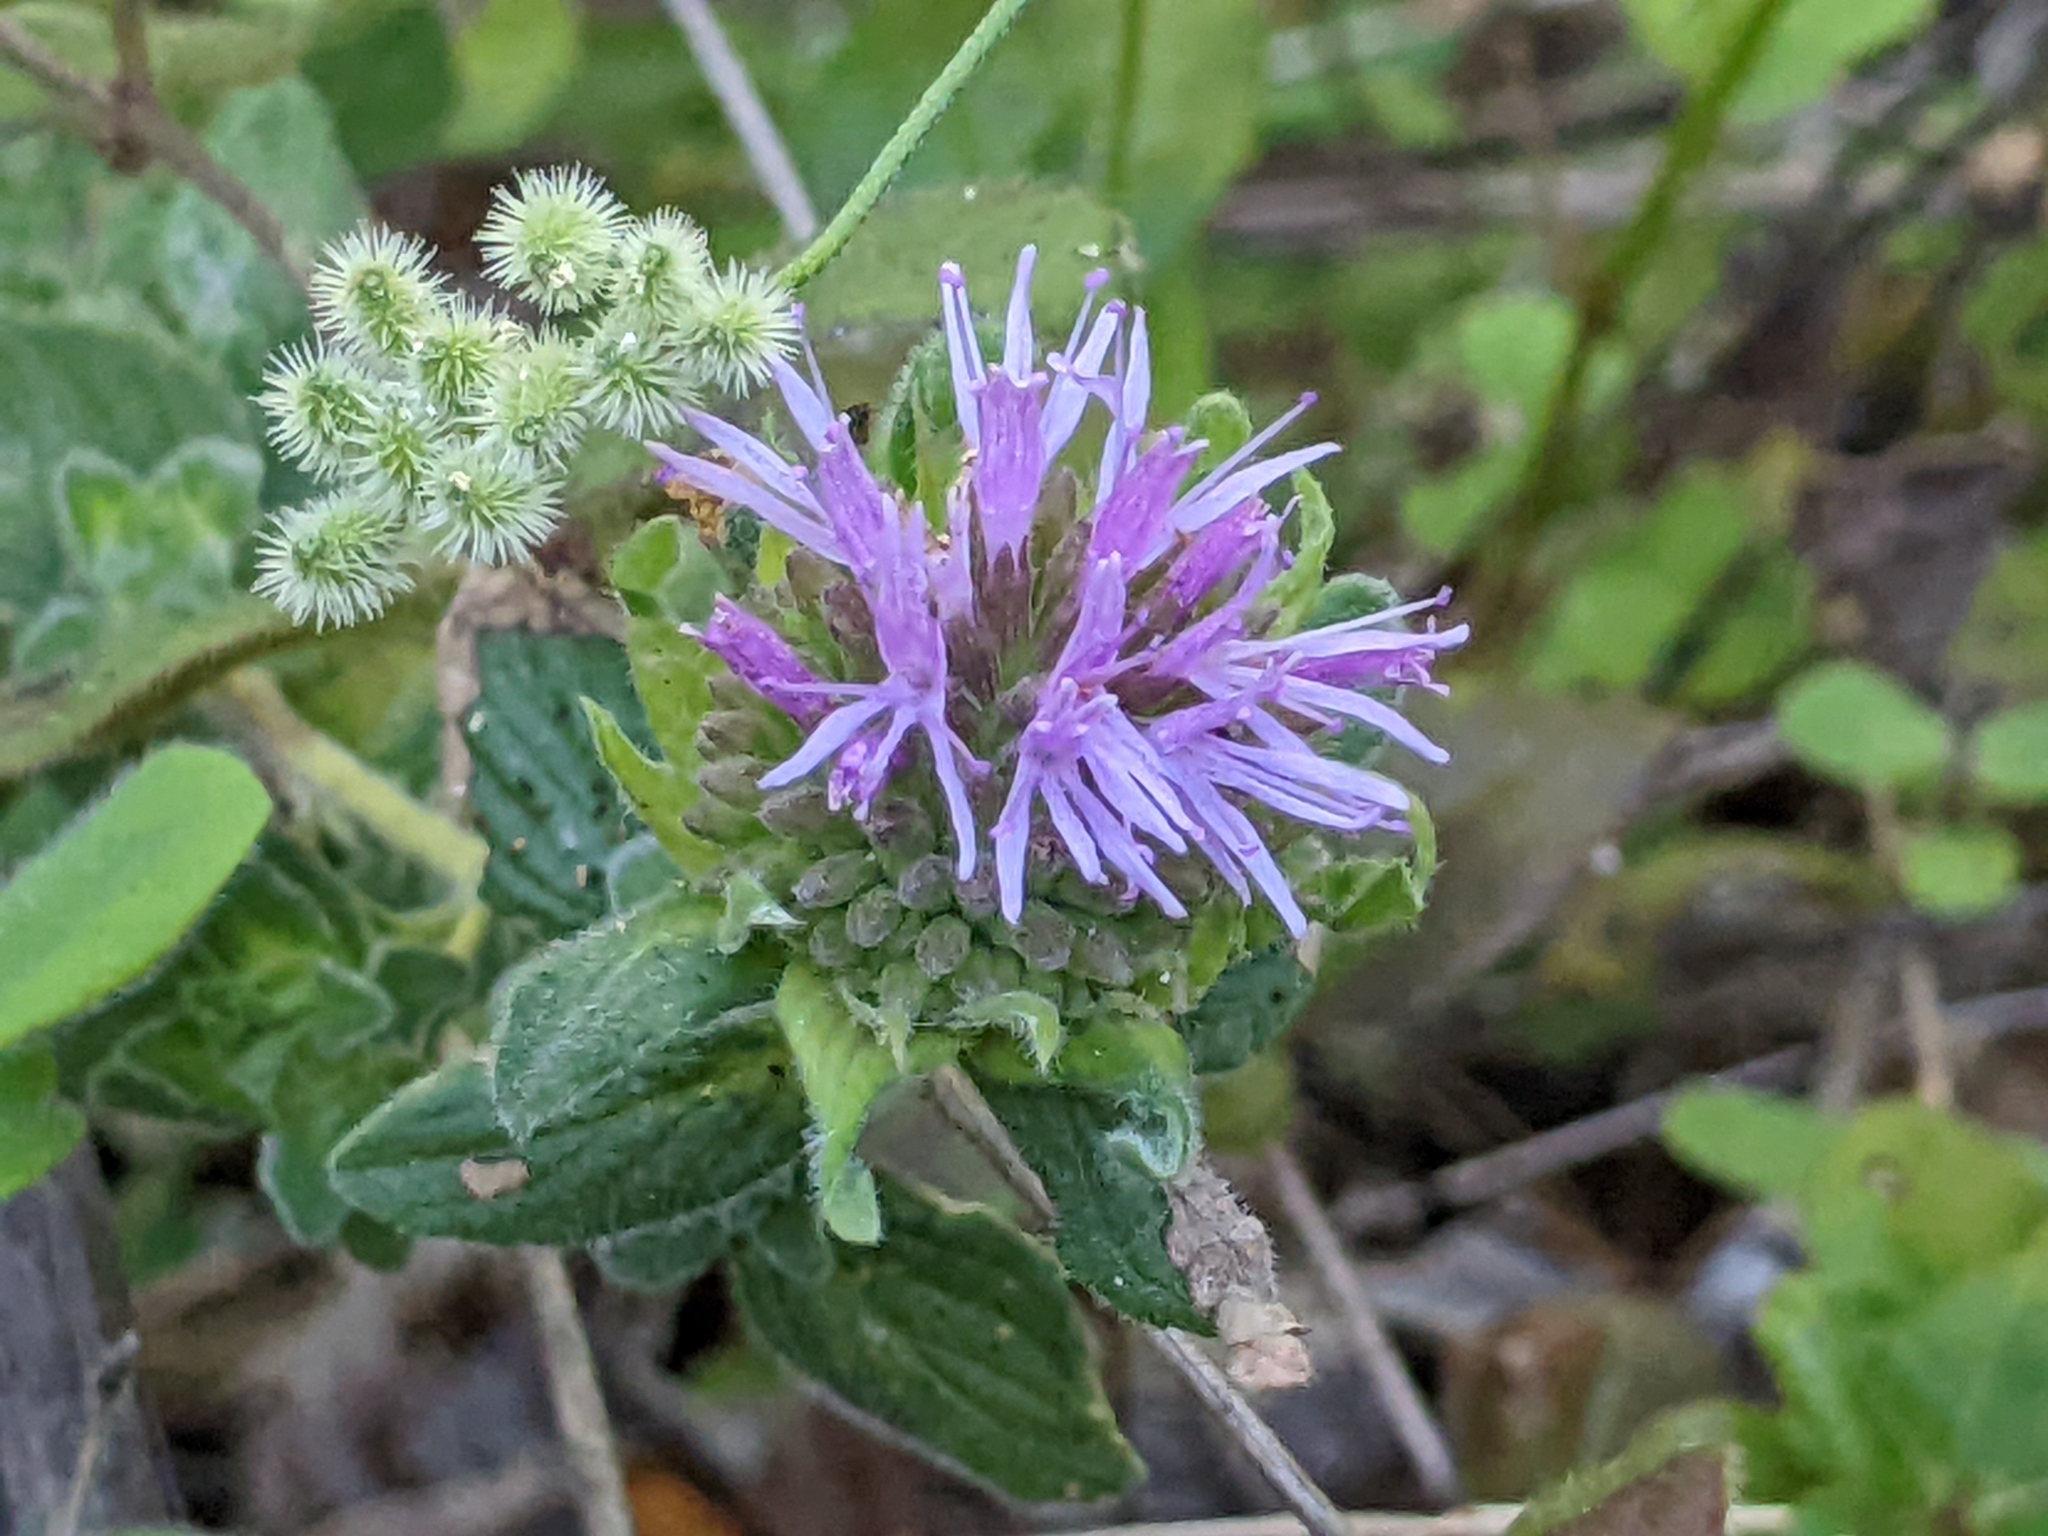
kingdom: Plantae
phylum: Tracheophyta
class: Magnoliopsida
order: Lamiales
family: Lamiaceae
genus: Monardella
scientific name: Monardella odoratissima
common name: Pacific monardella
